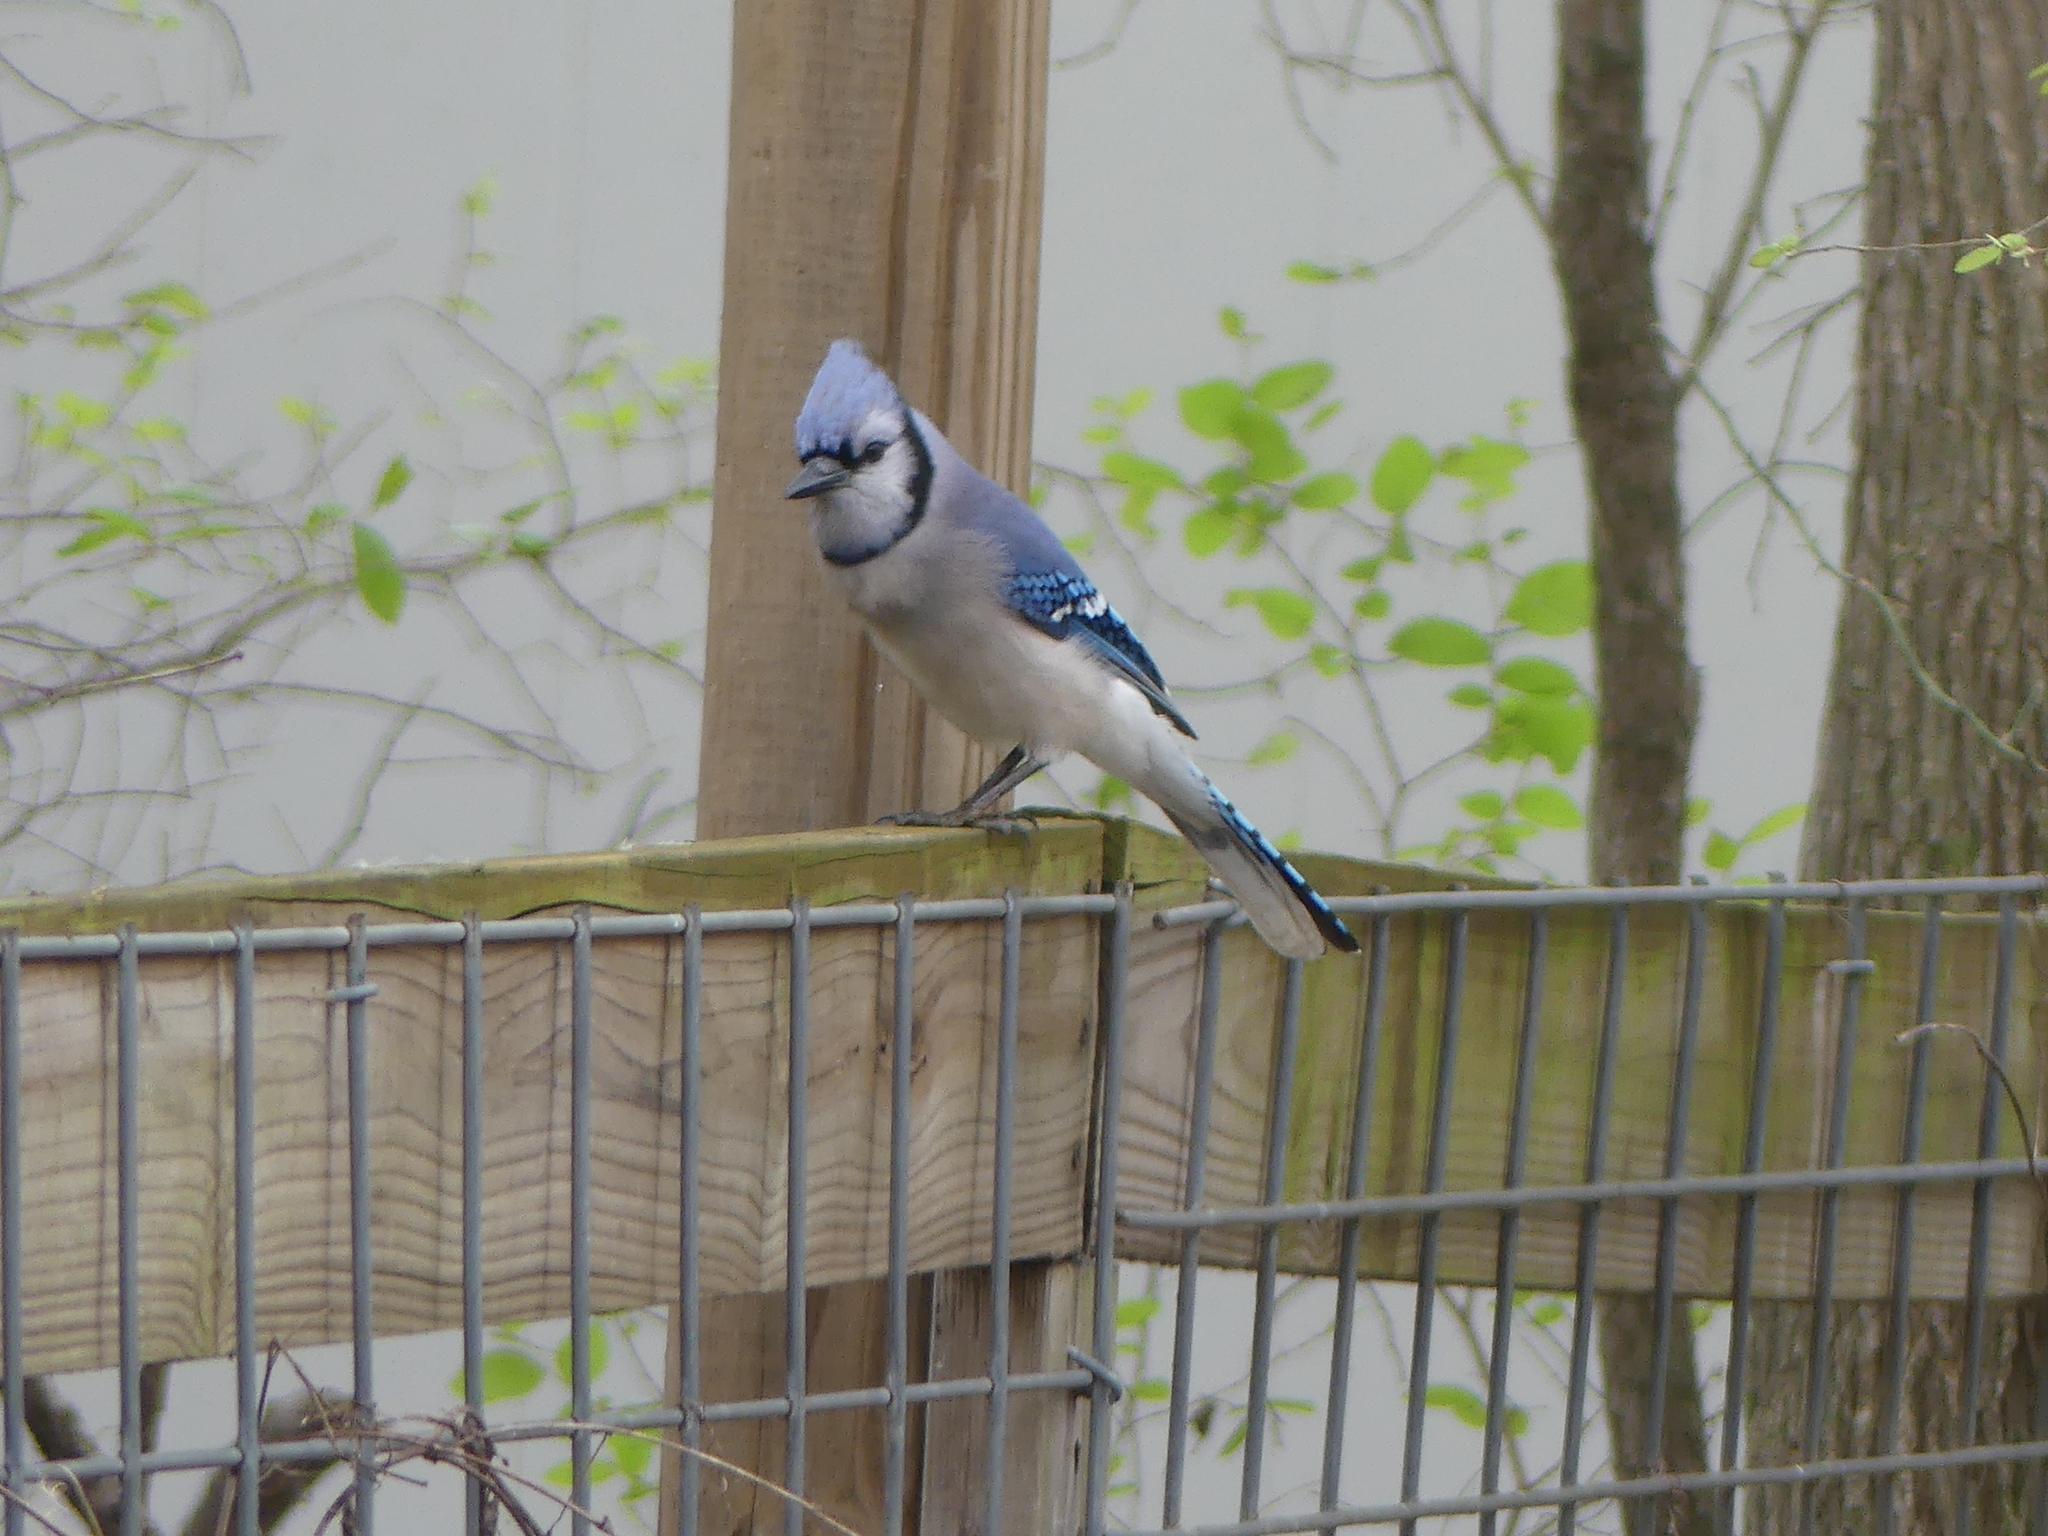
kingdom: Animalia
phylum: Chordata
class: Aves
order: Passeriformes
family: Corvidae
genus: Cyanocitta
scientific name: Cyanocitta cristata
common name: Blue jay
